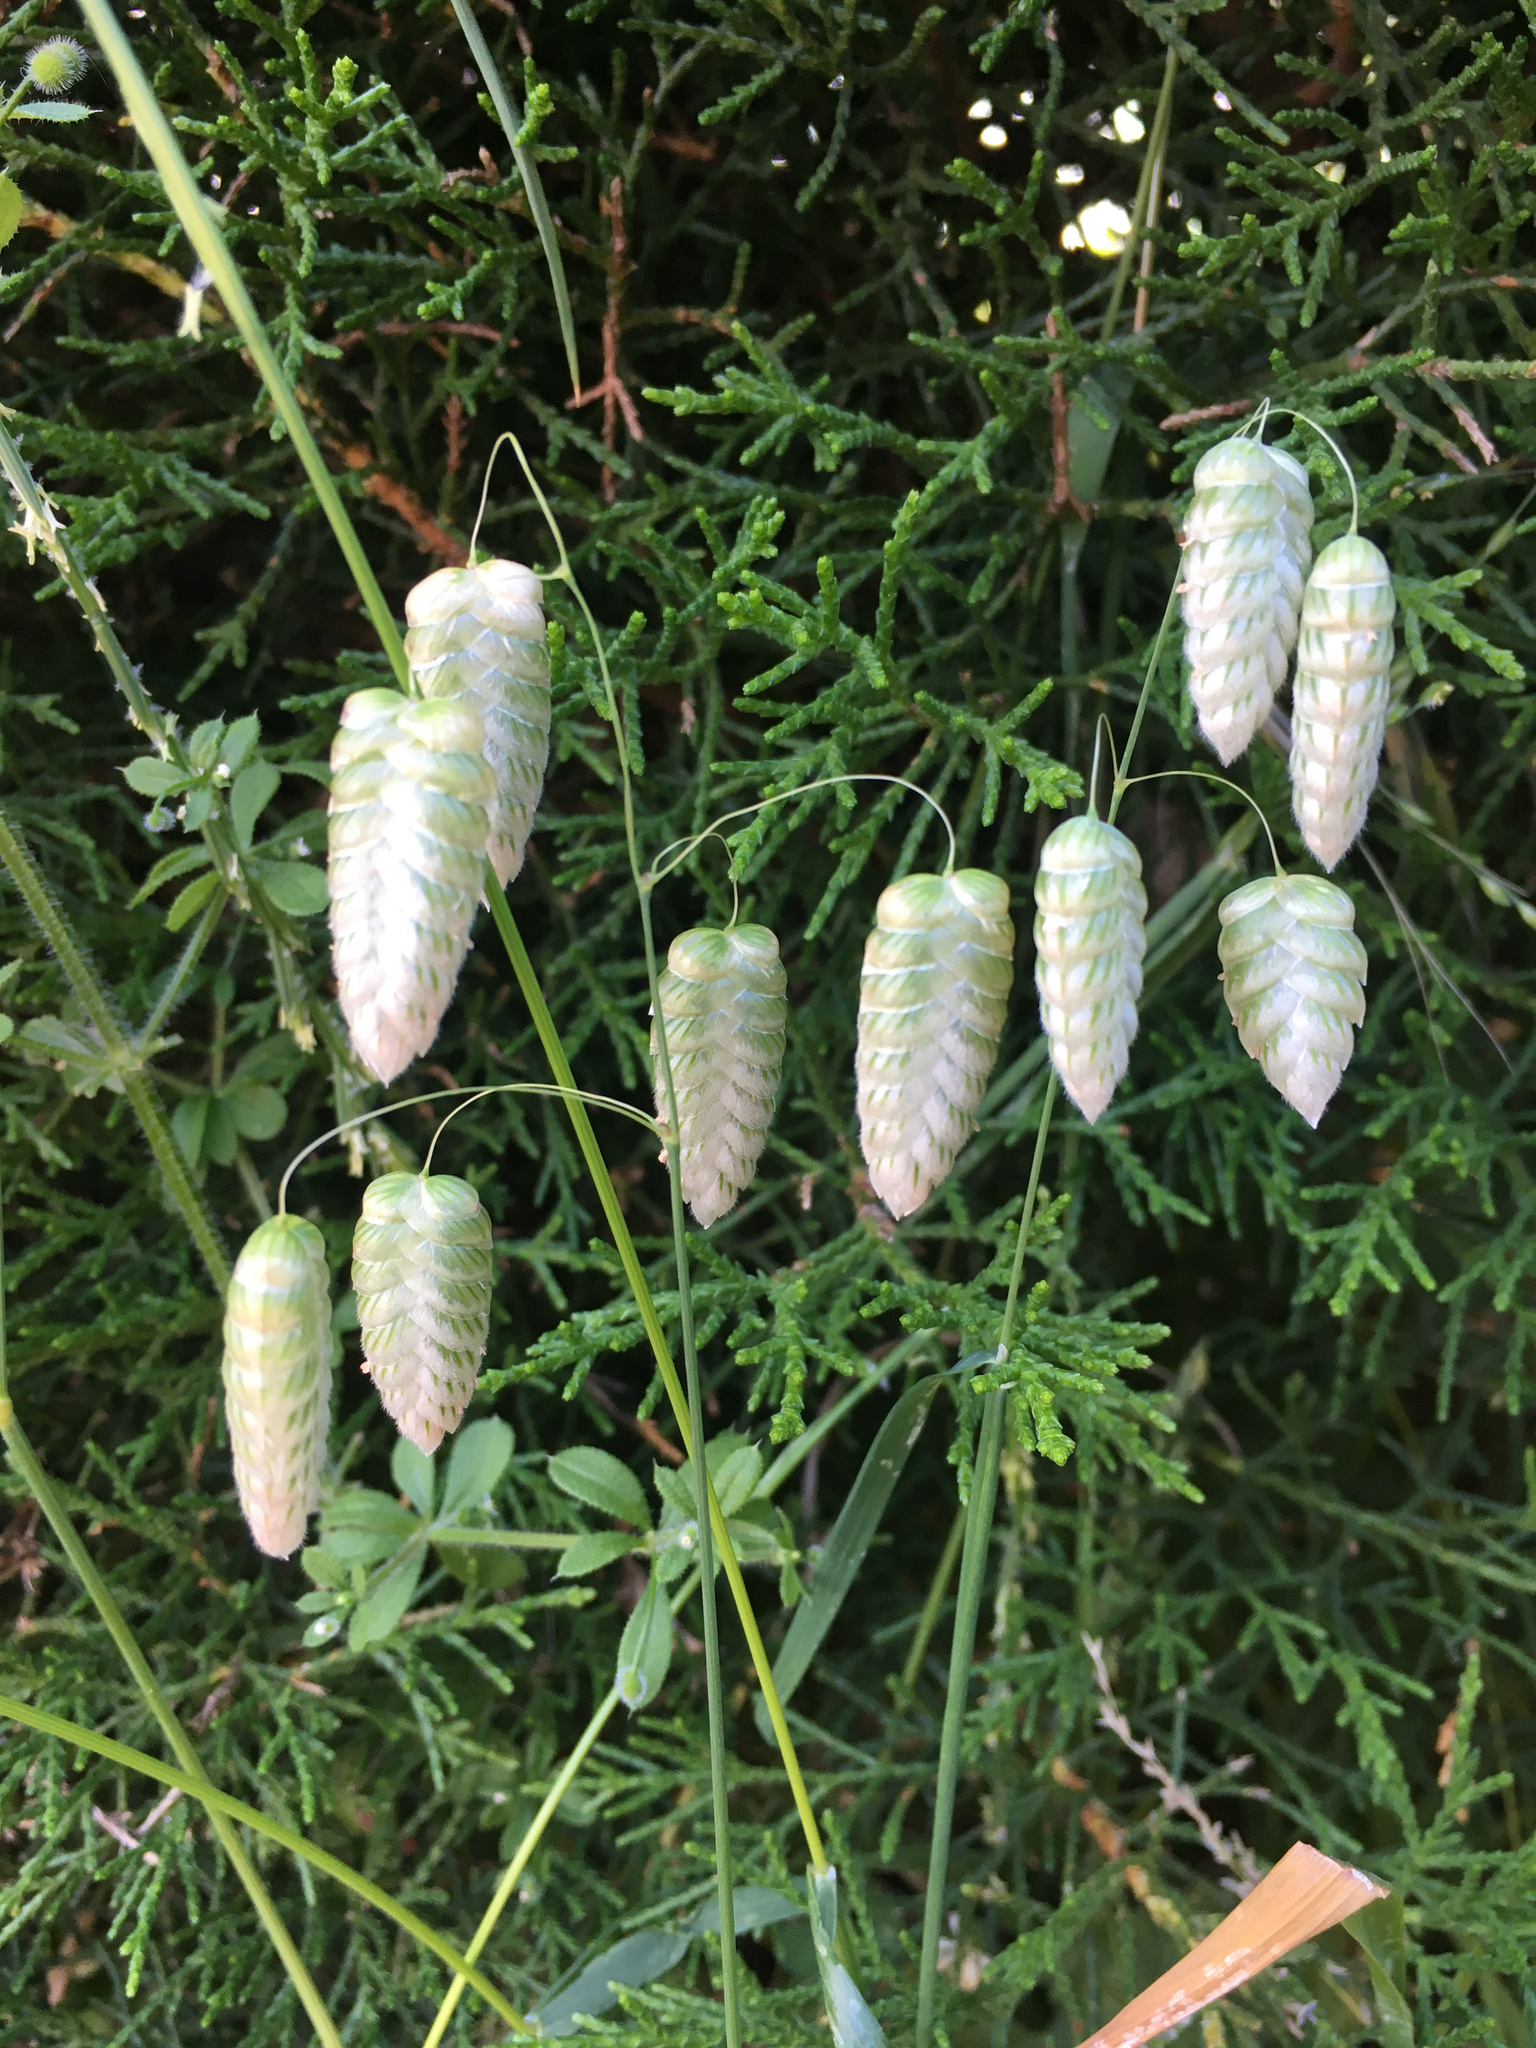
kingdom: Plantae
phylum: Tracheophyta
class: Liliopsida
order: Poales
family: Poaceae
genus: Briza
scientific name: Briza maxima
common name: Big quakinggrass
